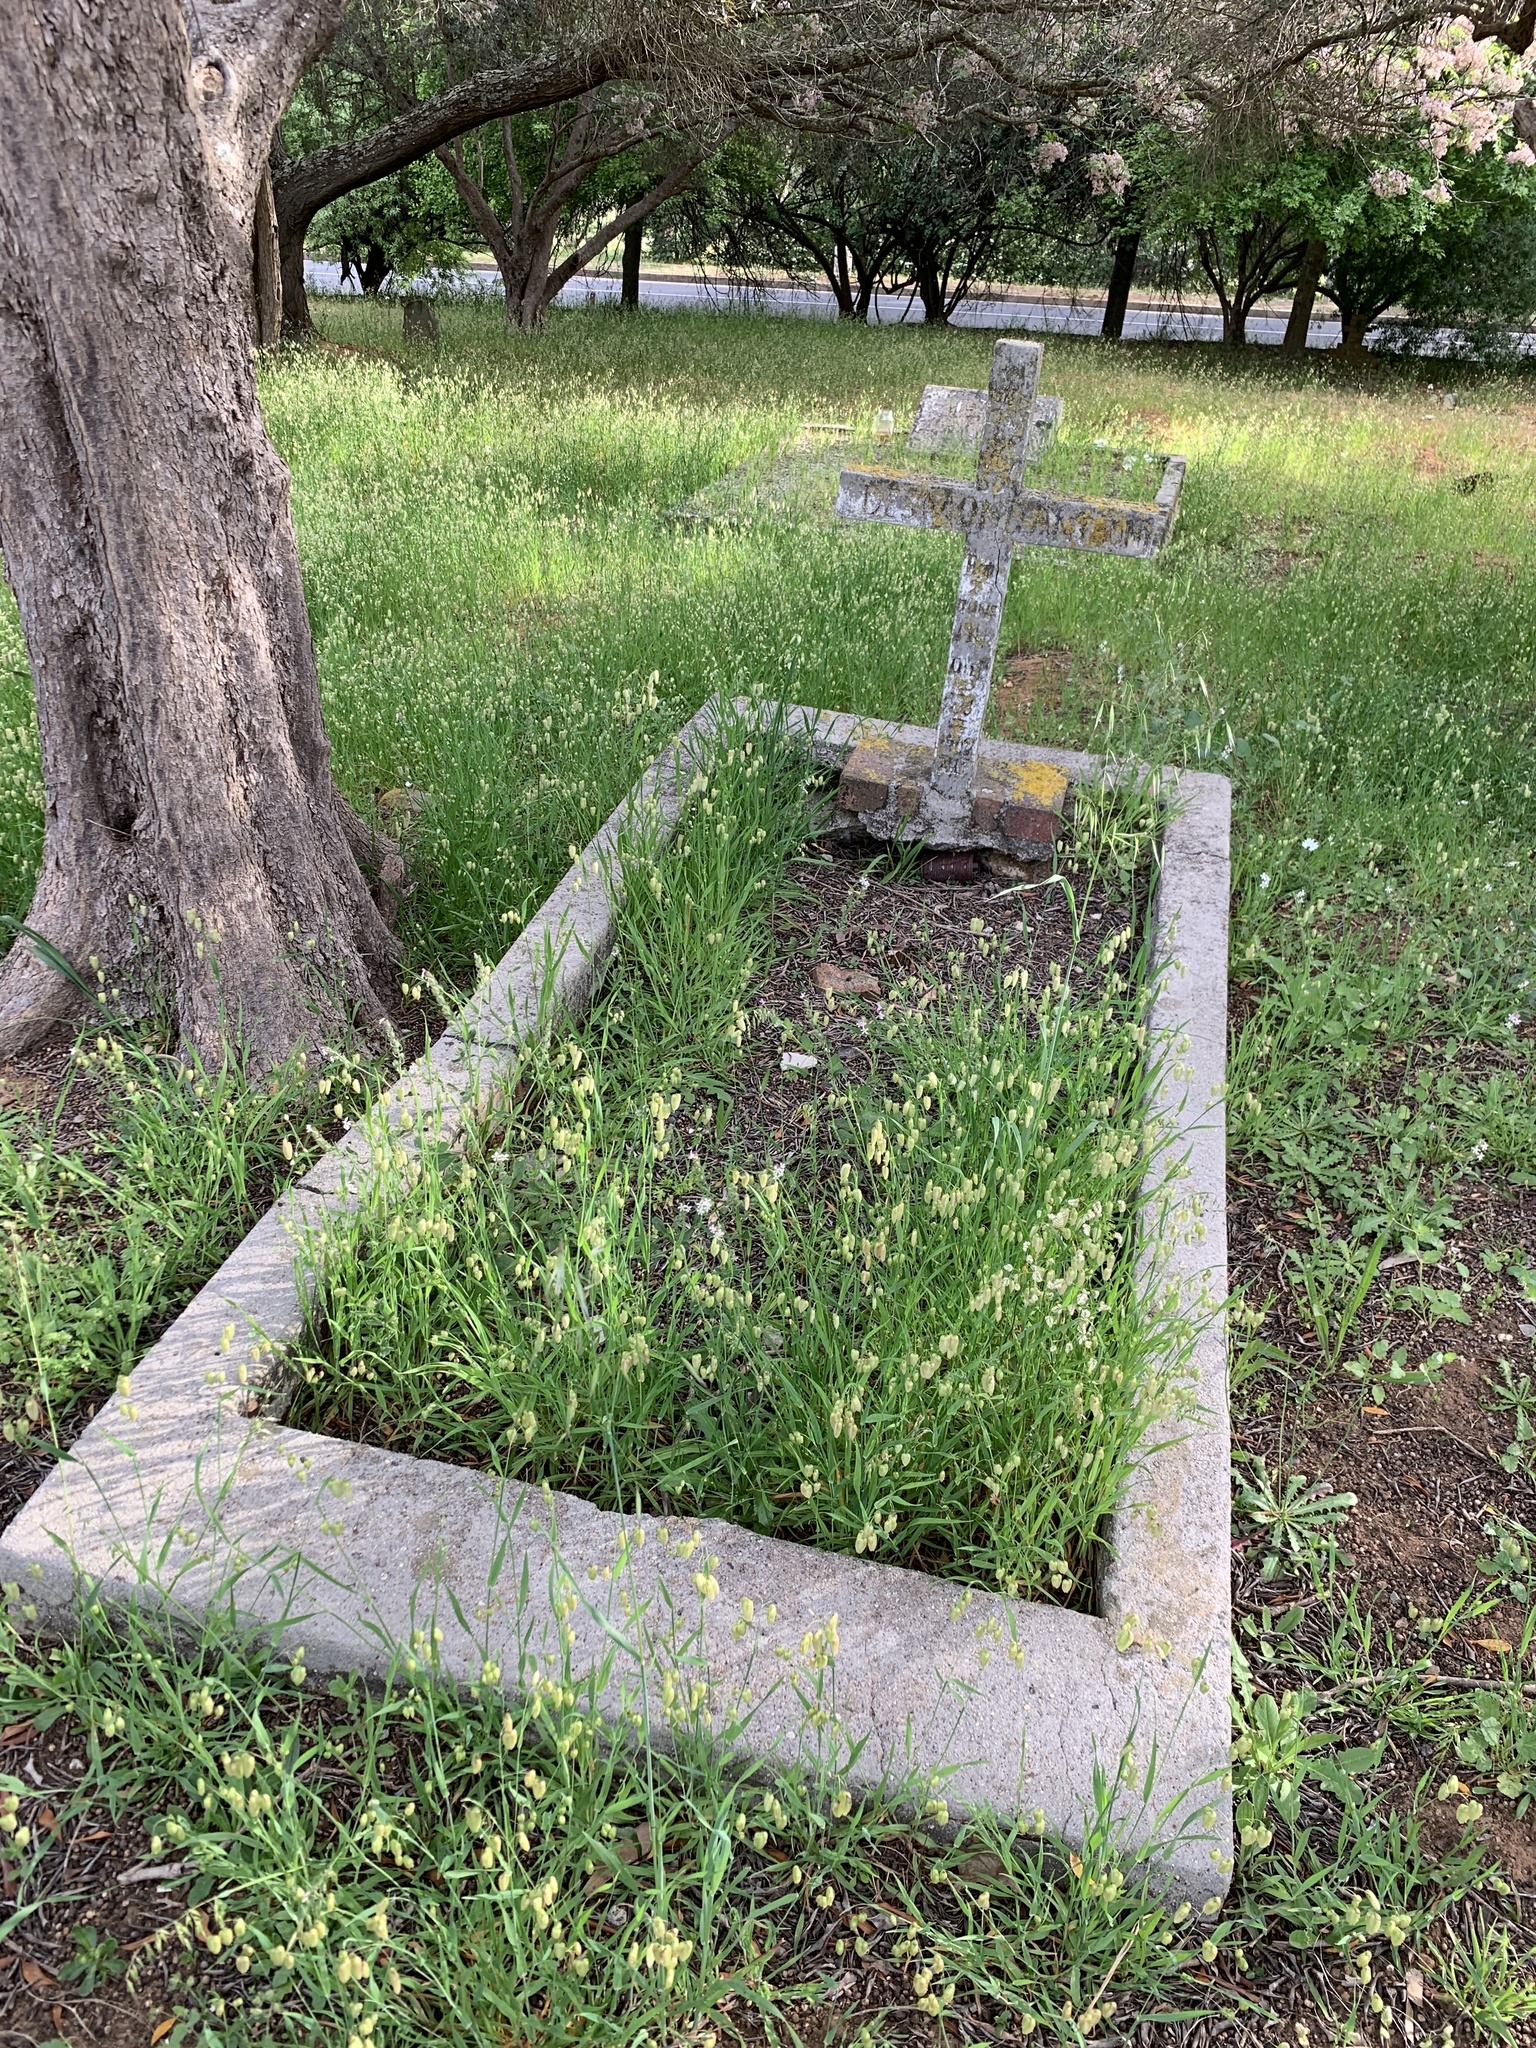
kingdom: Plantae
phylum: Tracheophyta
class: Liliopsida
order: Poales
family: Poaceae
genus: Briza
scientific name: Briza maxima
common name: Big quakinggrass
